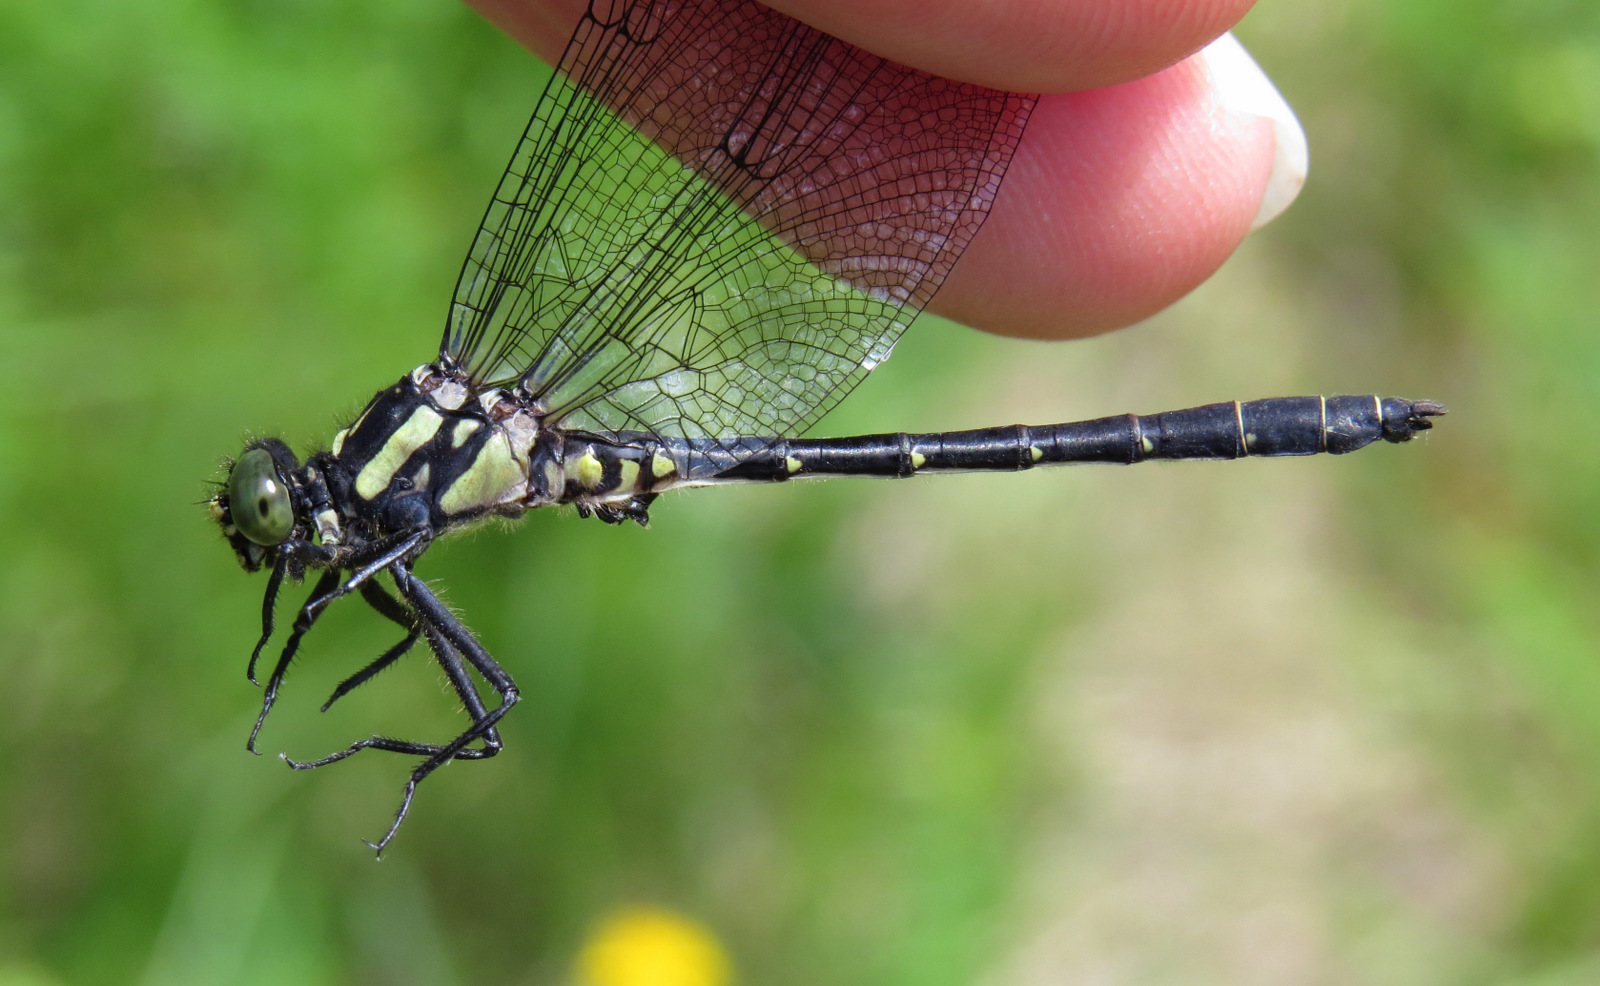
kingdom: Animalia
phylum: Arthropoda
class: Insecta
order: Odonata
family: Gomphidae
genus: Lanthus
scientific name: Lanthus parvulus
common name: Northern pygmy clubtail
